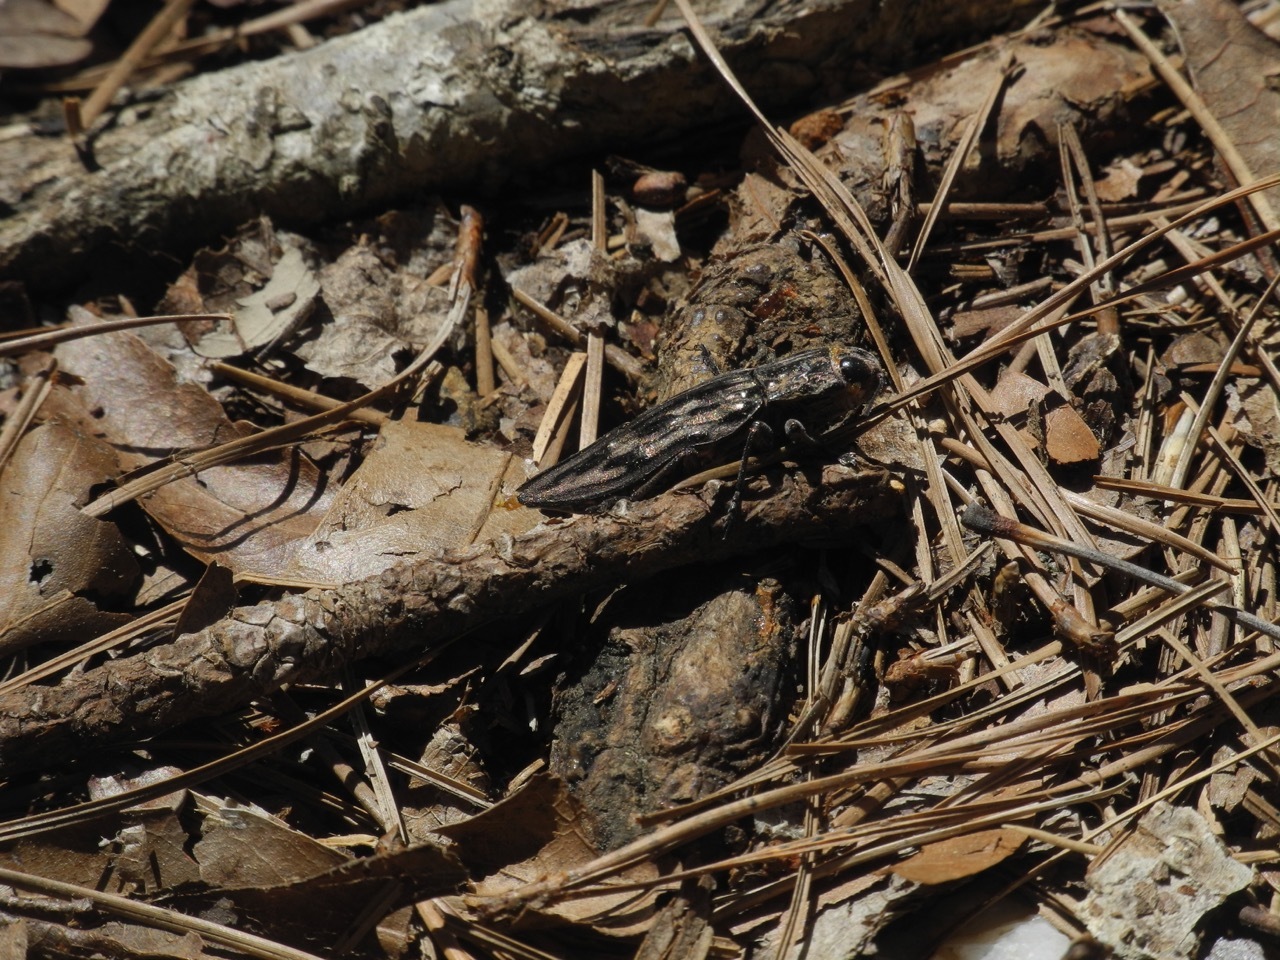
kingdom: Animalia
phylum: Arthropoda
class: Insecta
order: Coleoptera
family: Buprestidae
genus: Chalcophora
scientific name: Chalcophora virginiensis
